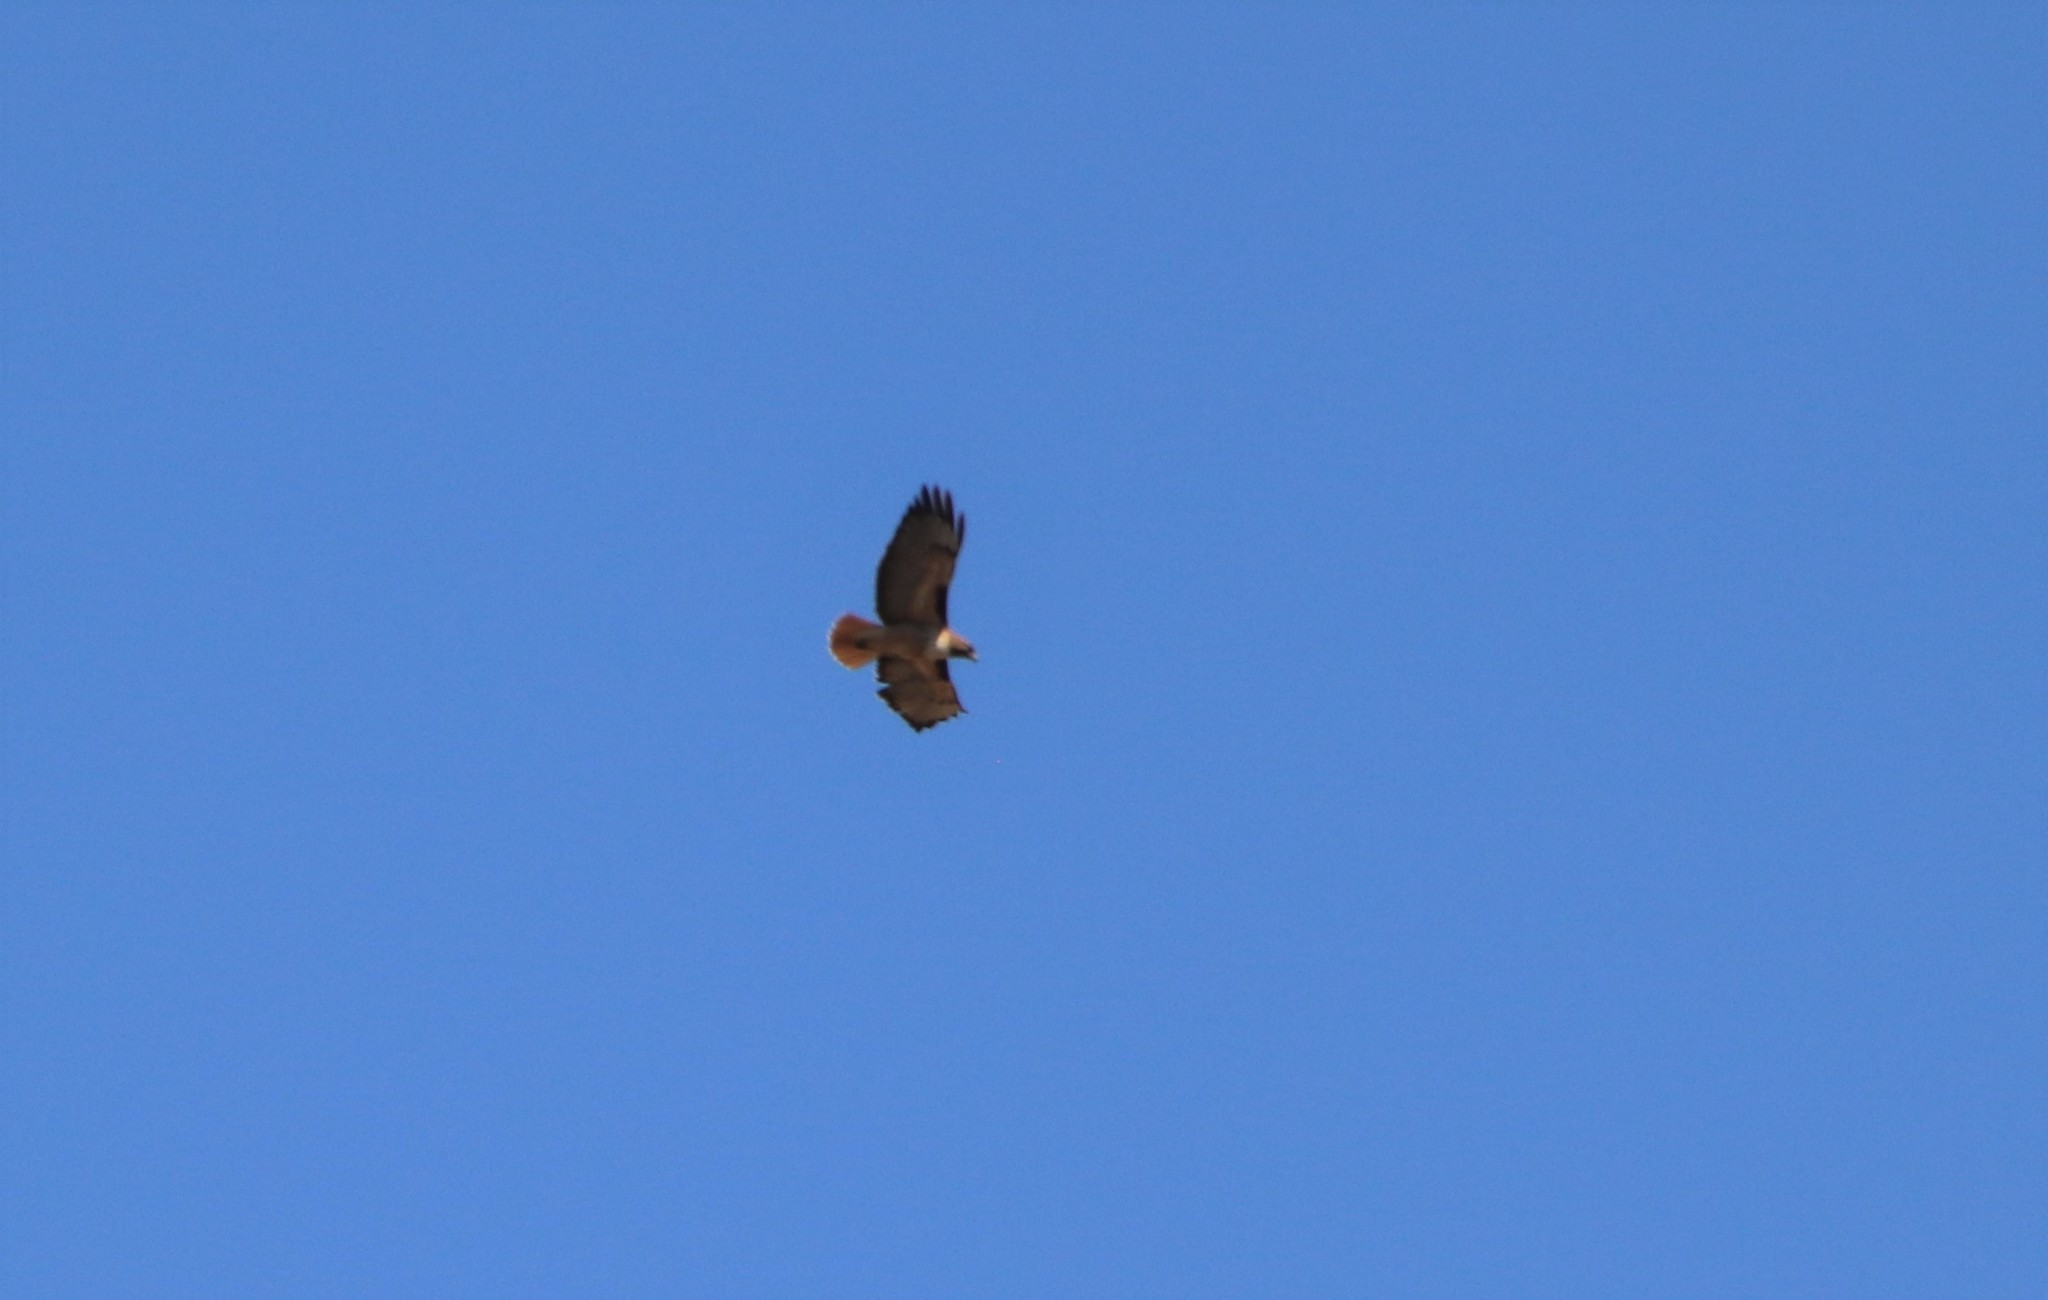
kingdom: Animalia
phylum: Chordata
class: Aves
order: Accipitriformes
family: Accipitridae
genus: Buteo
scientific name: Buteo jamaicensis
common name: Red-tailed hawk
